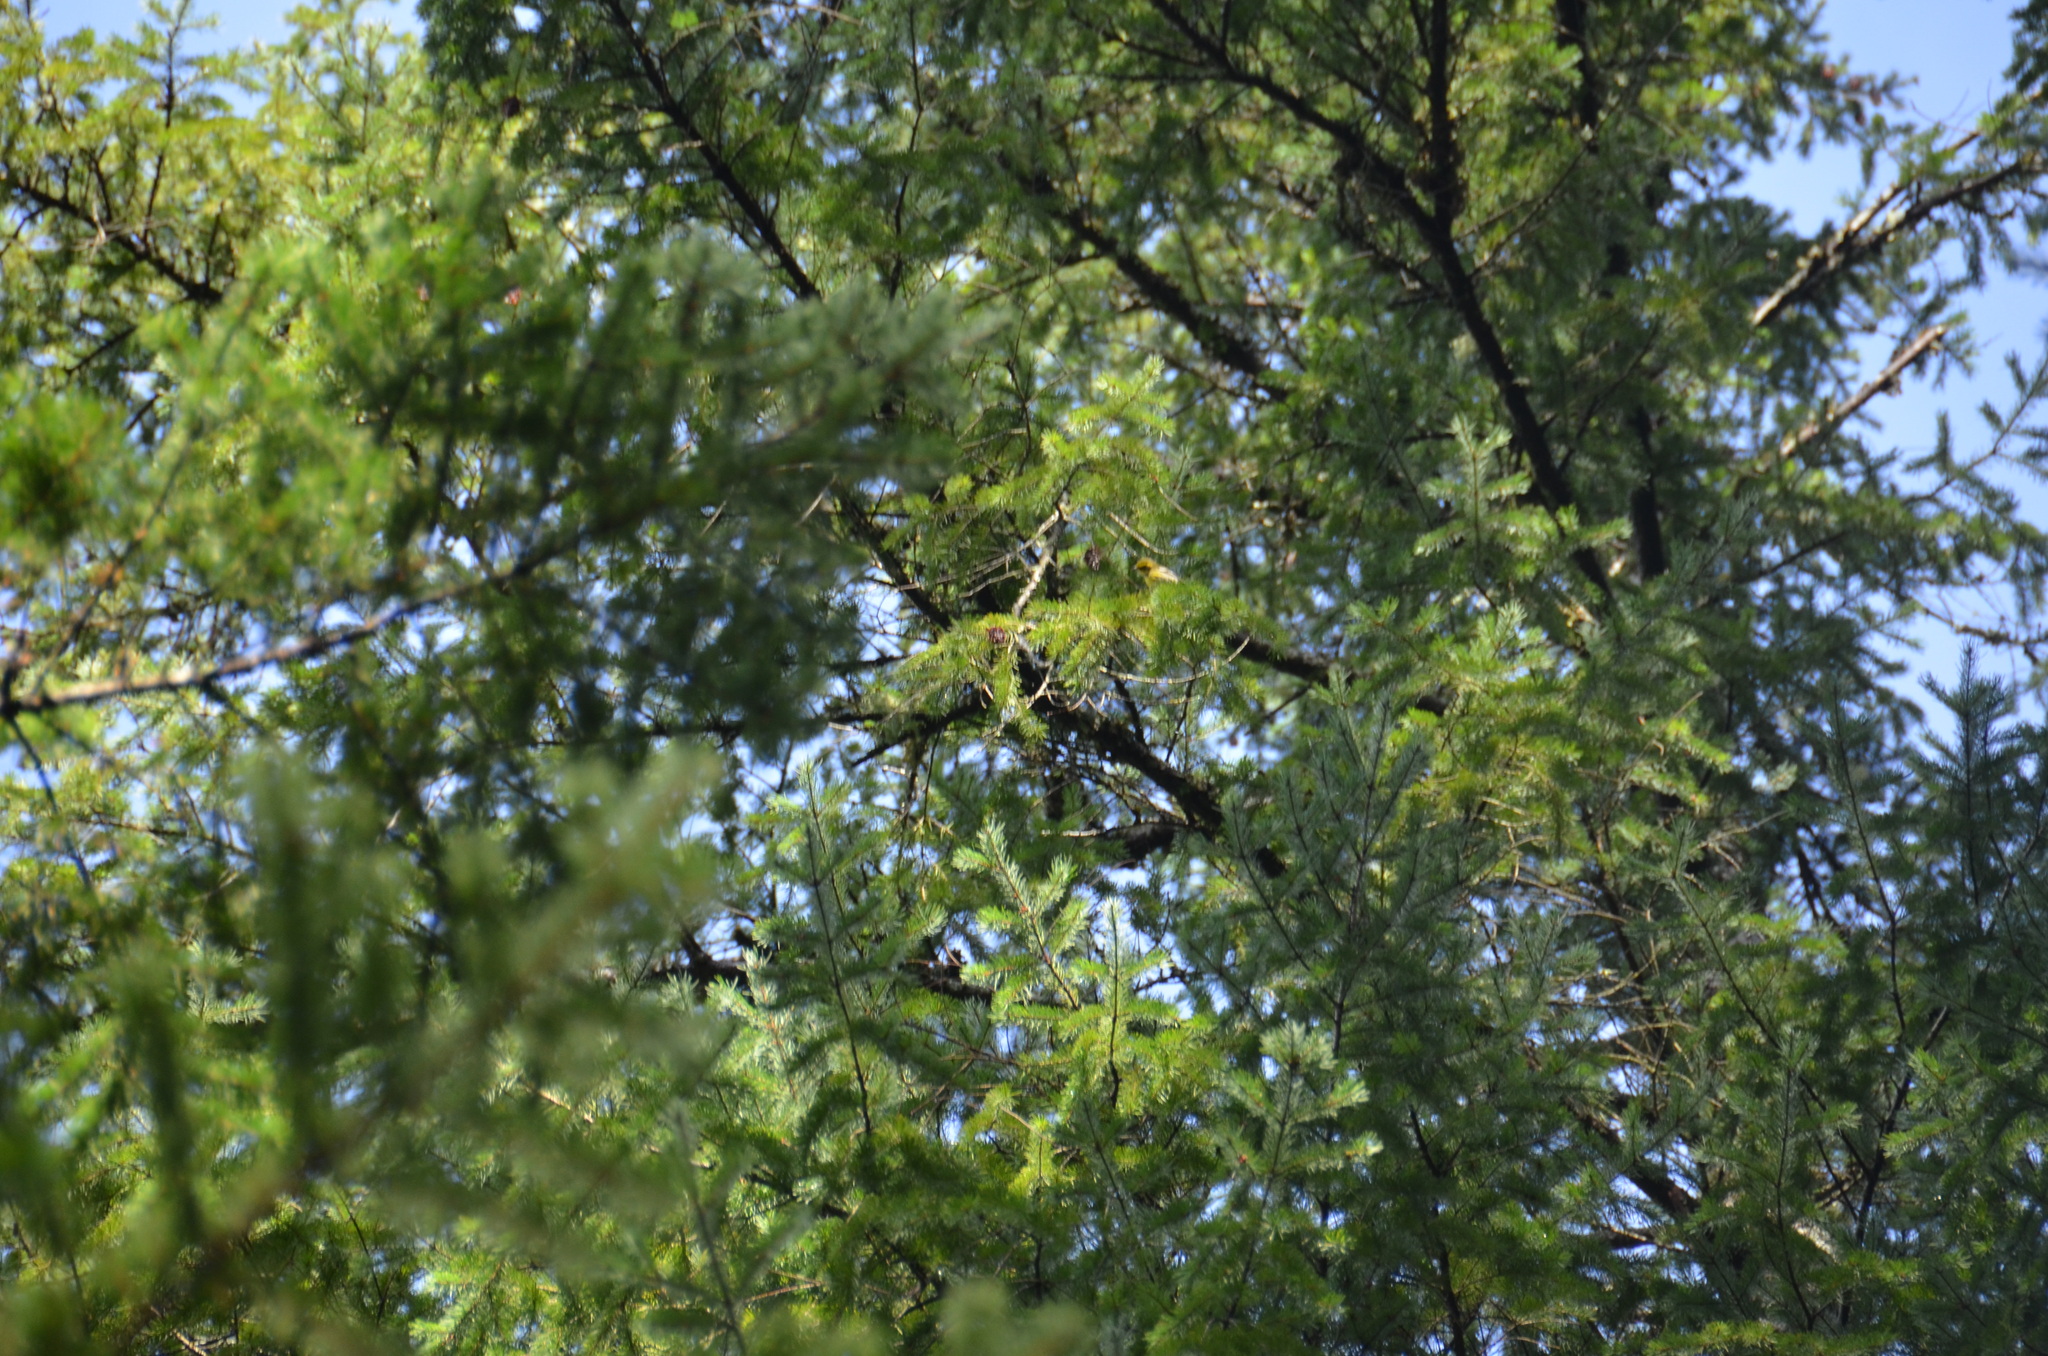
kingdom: Animalia
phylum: Chordata
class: Aves
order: Passeriformes
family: Parulidae
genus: Setophaga
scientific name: Setophaga townsendi
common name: Townsend's warbler
